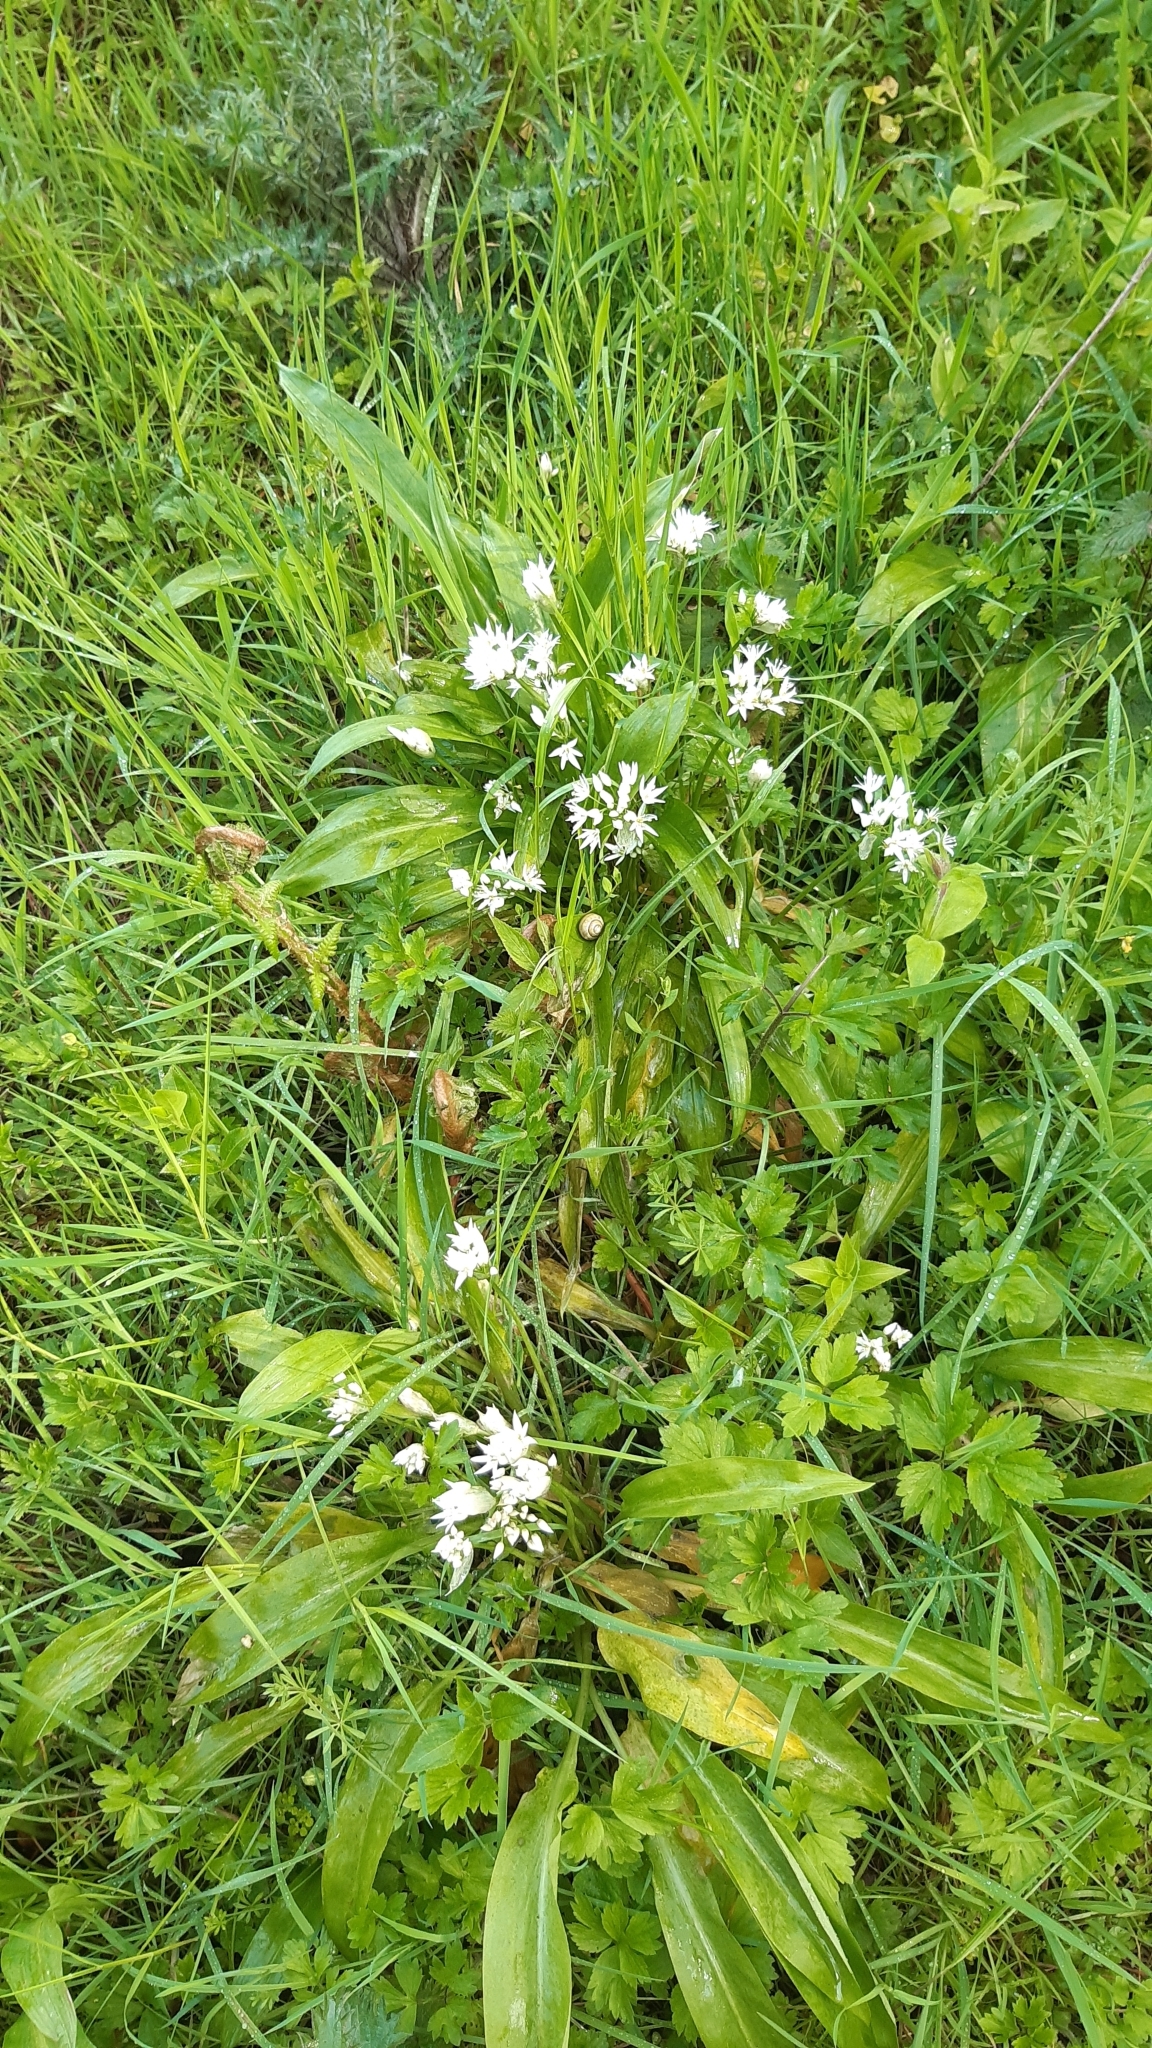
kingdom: Plantae
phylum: Tracheophyta
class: Liliopsida
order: Asparagales
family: Amaryllidaceae
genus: Allium
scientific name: Allium ursinum
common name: Ramsons
